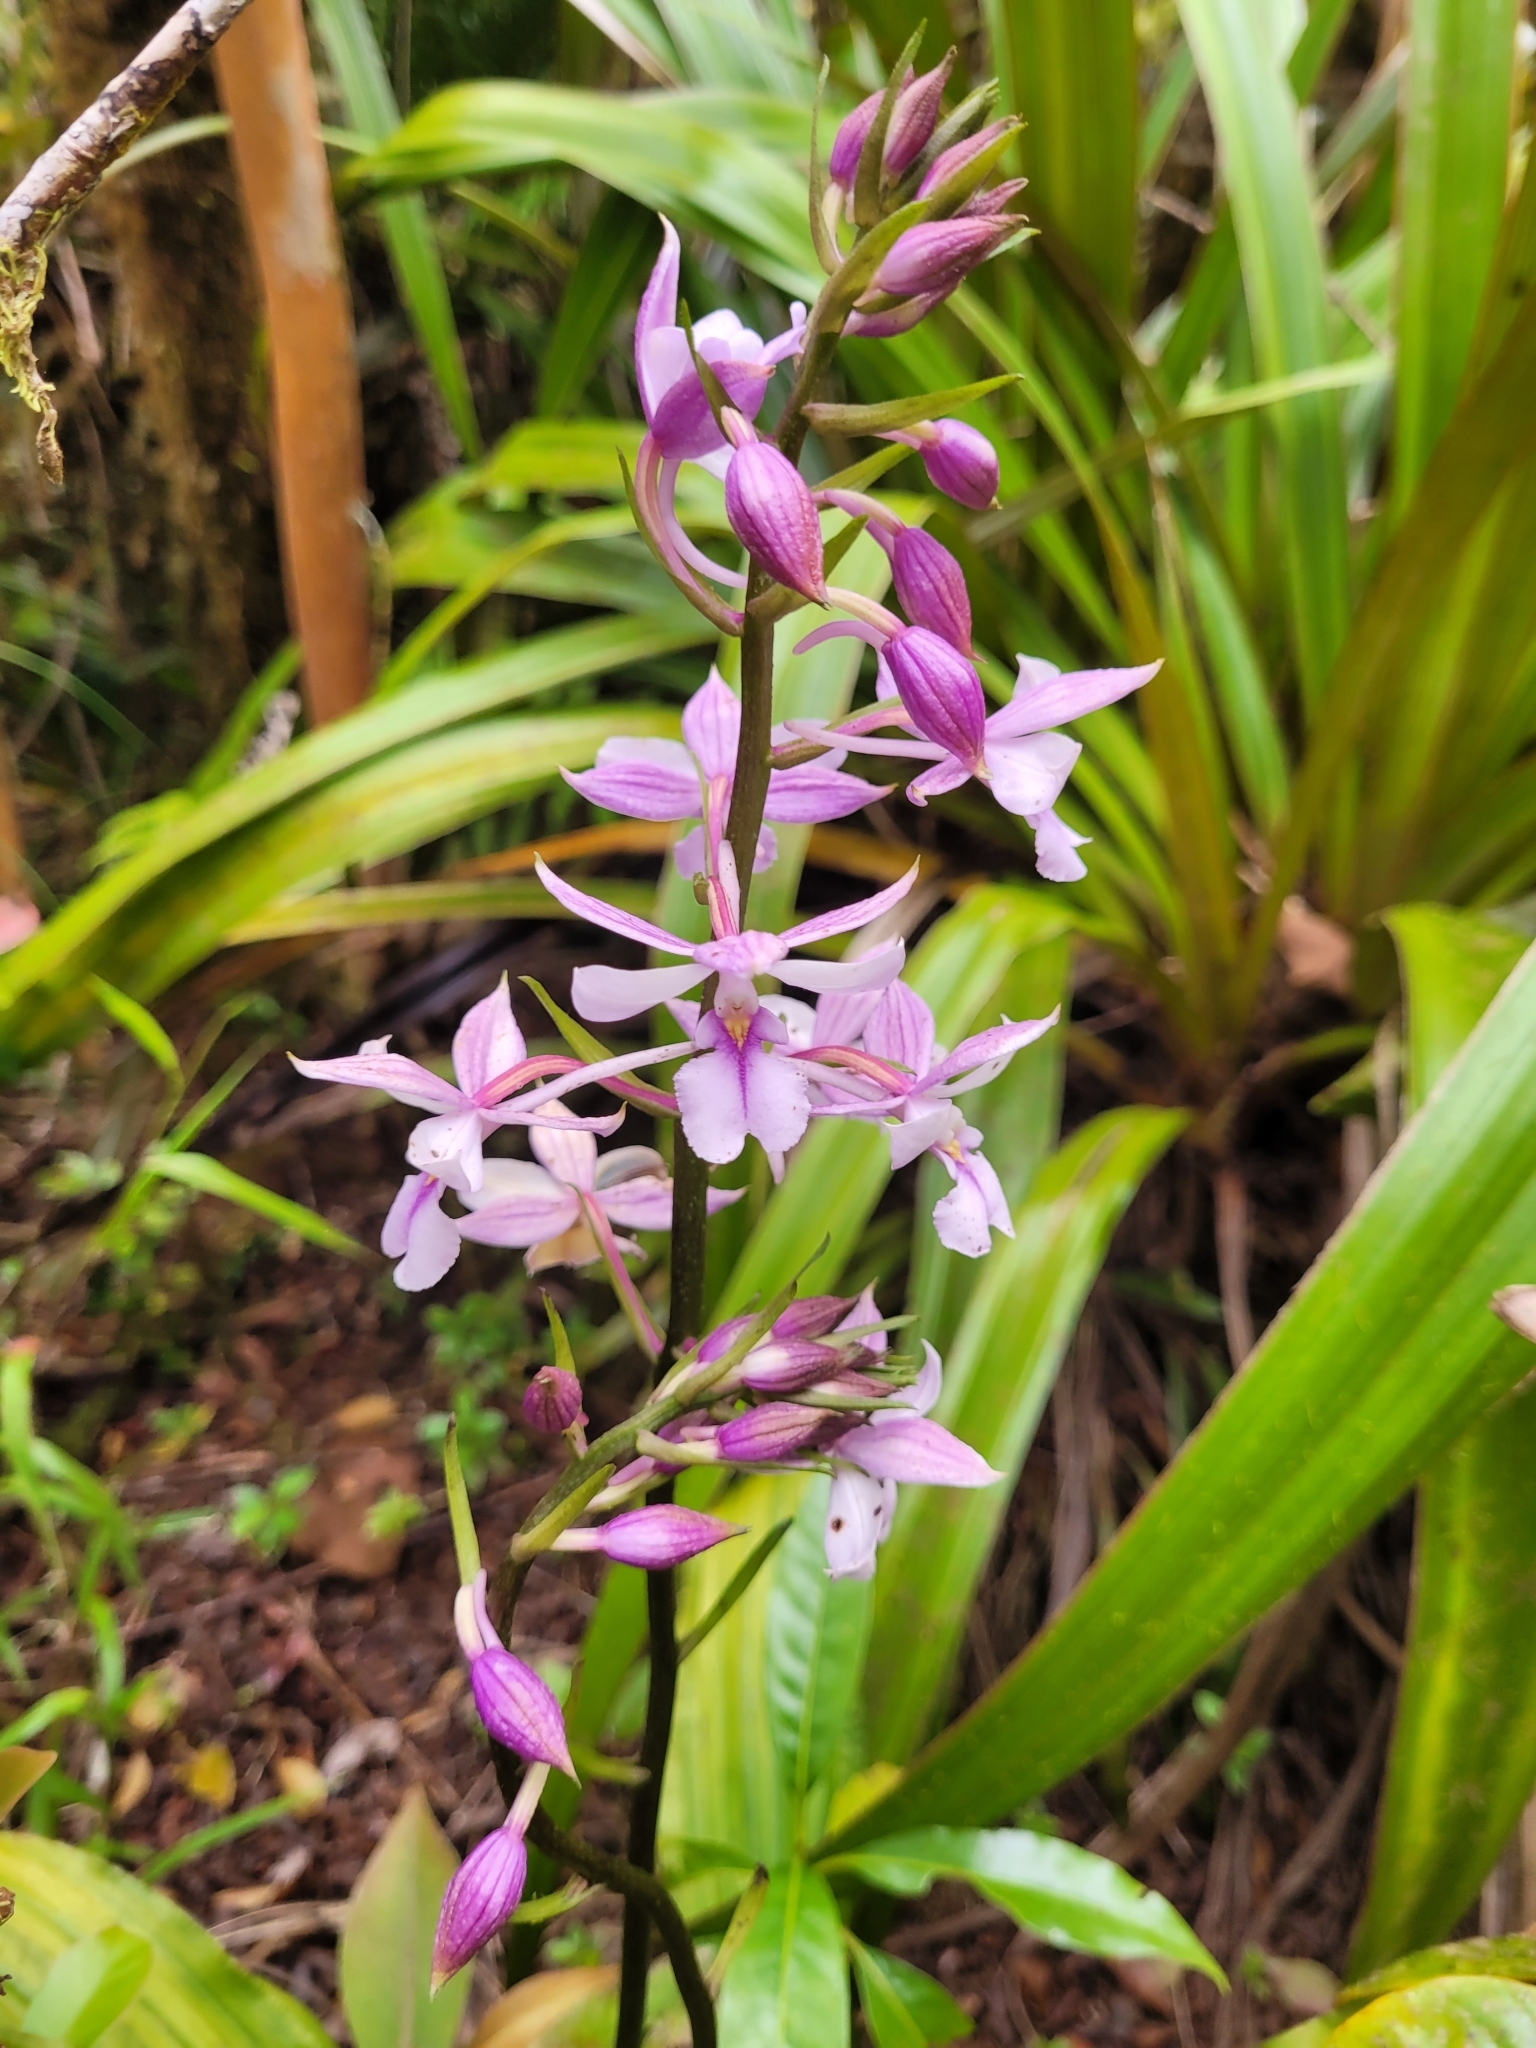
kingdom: Plantae
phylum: Tracheophyta
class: Liliopsida
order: Asparagales
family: Orchidaceae
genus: Calanthe
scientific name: Calanthe sylvatica
